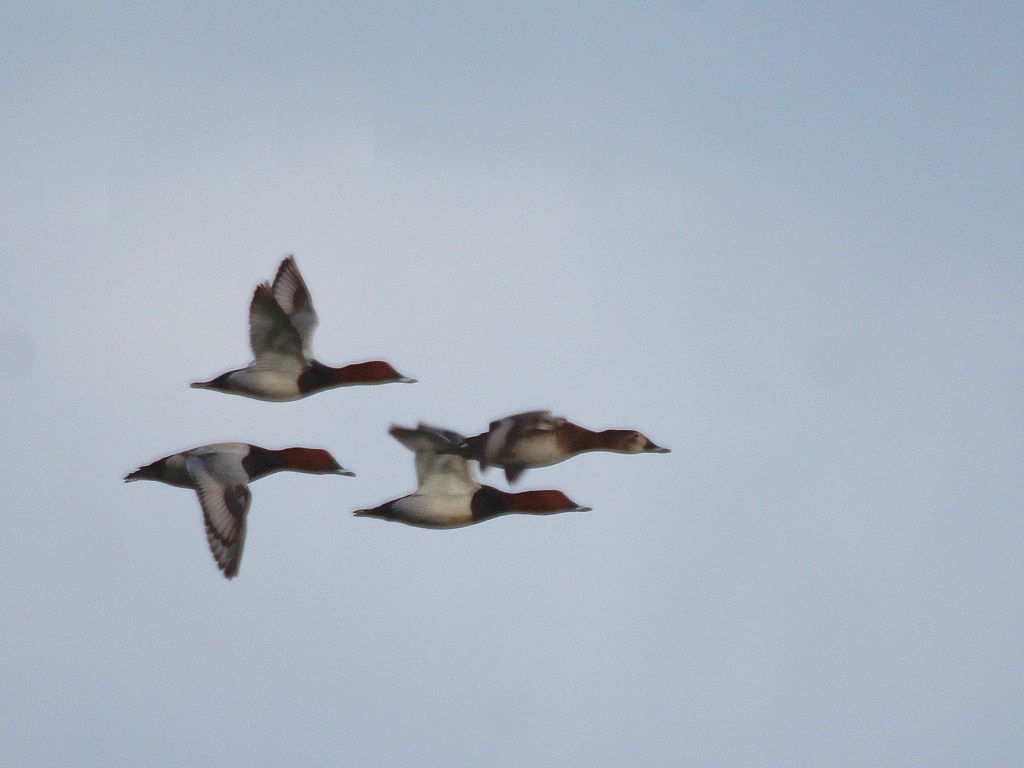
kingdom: Animalia
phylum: Chordata
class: Aves
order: Anseriformes
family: Anatidae
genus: Aythya
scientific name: Aythya ferina
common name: Common pochard
